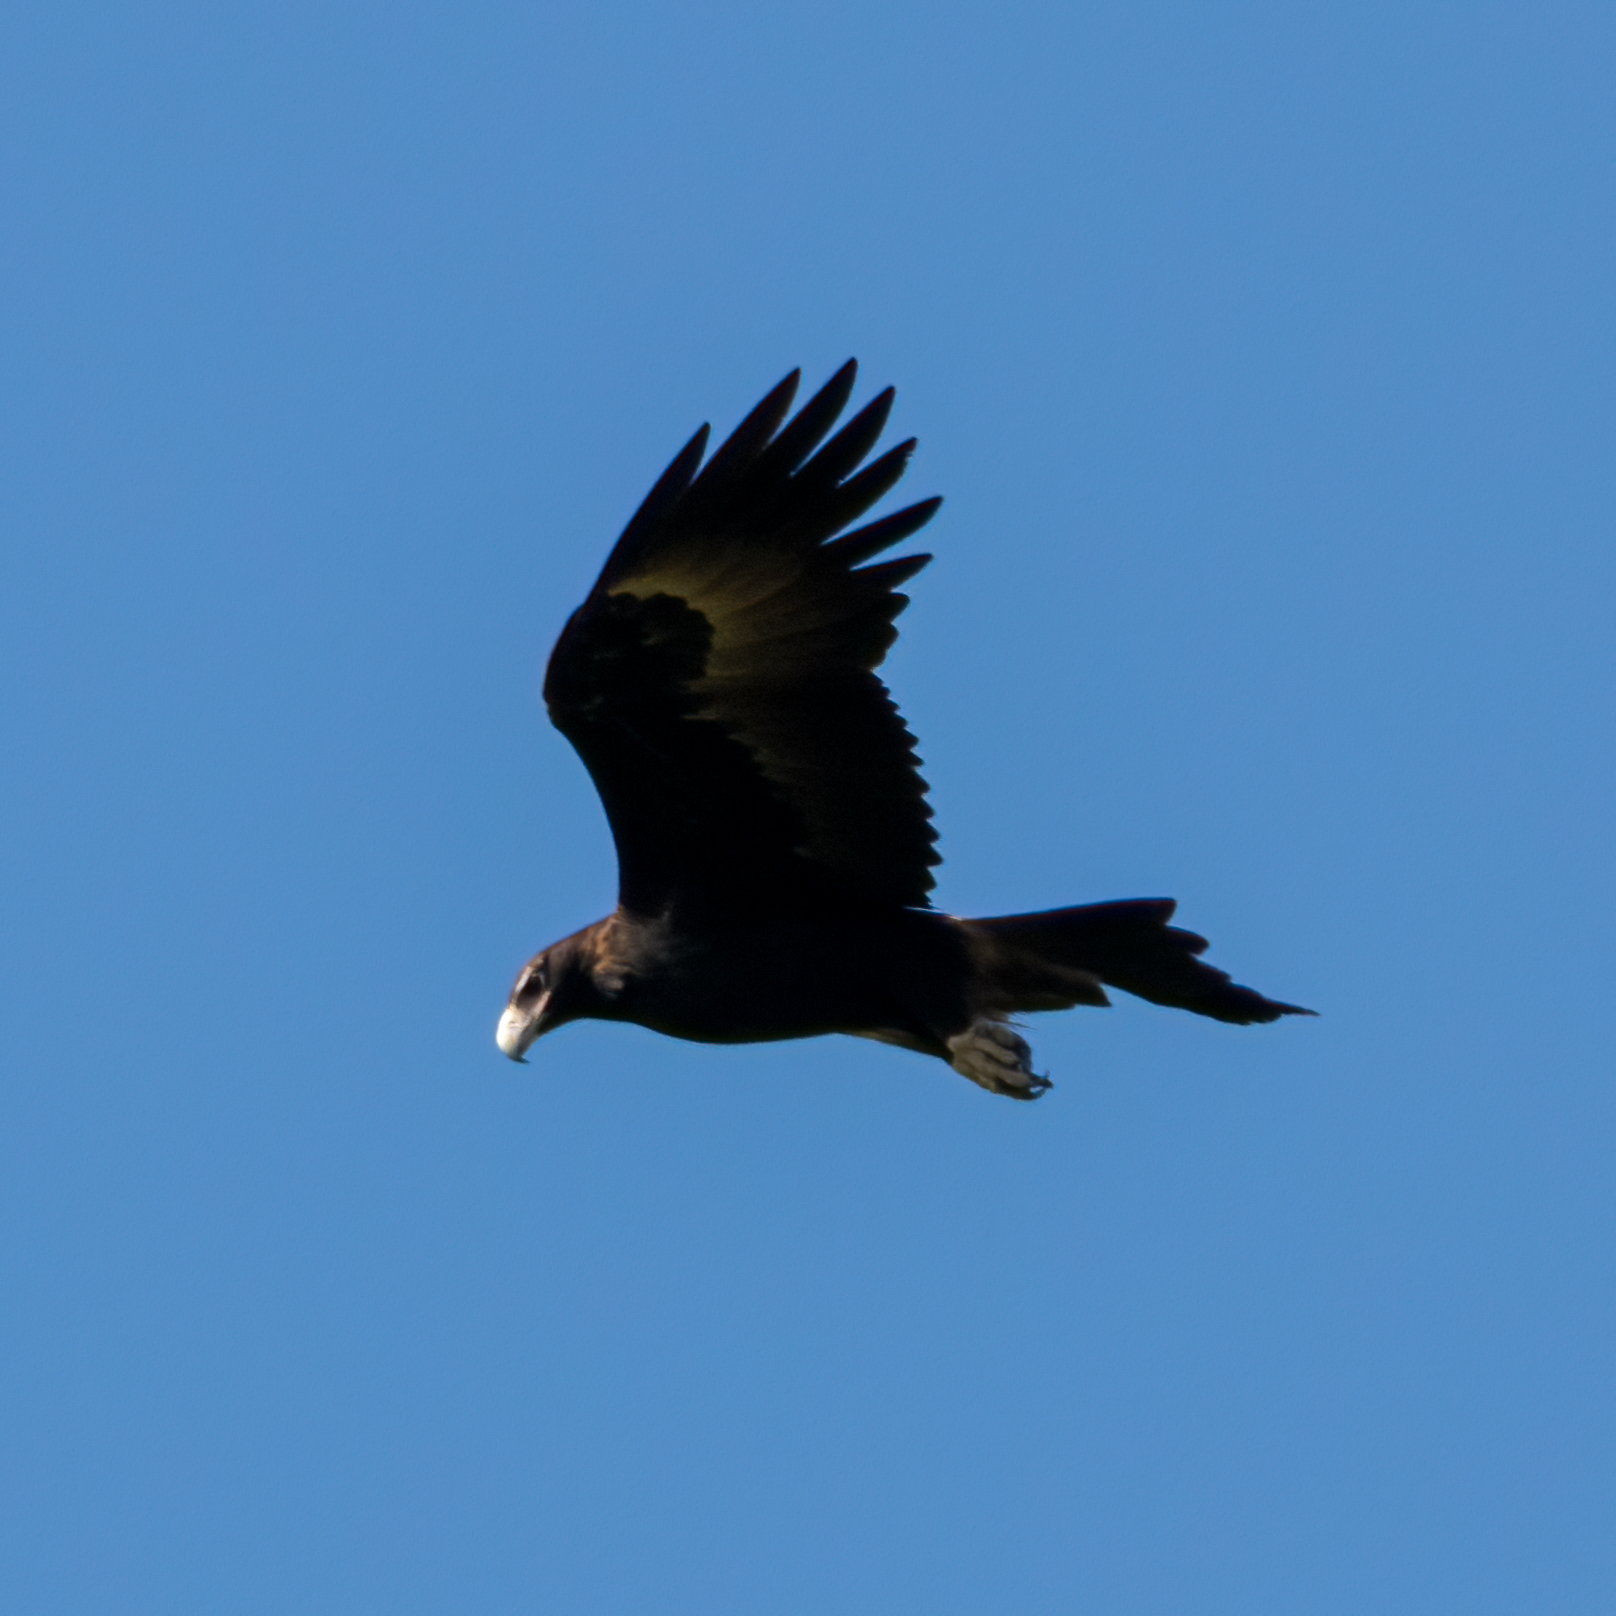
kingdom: Animalia
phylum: Chordata
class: Aves
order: Accipitriformes
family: Accipitridae
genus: Aquila
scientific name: Aquila audax
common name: Wedge-tailed eagle
